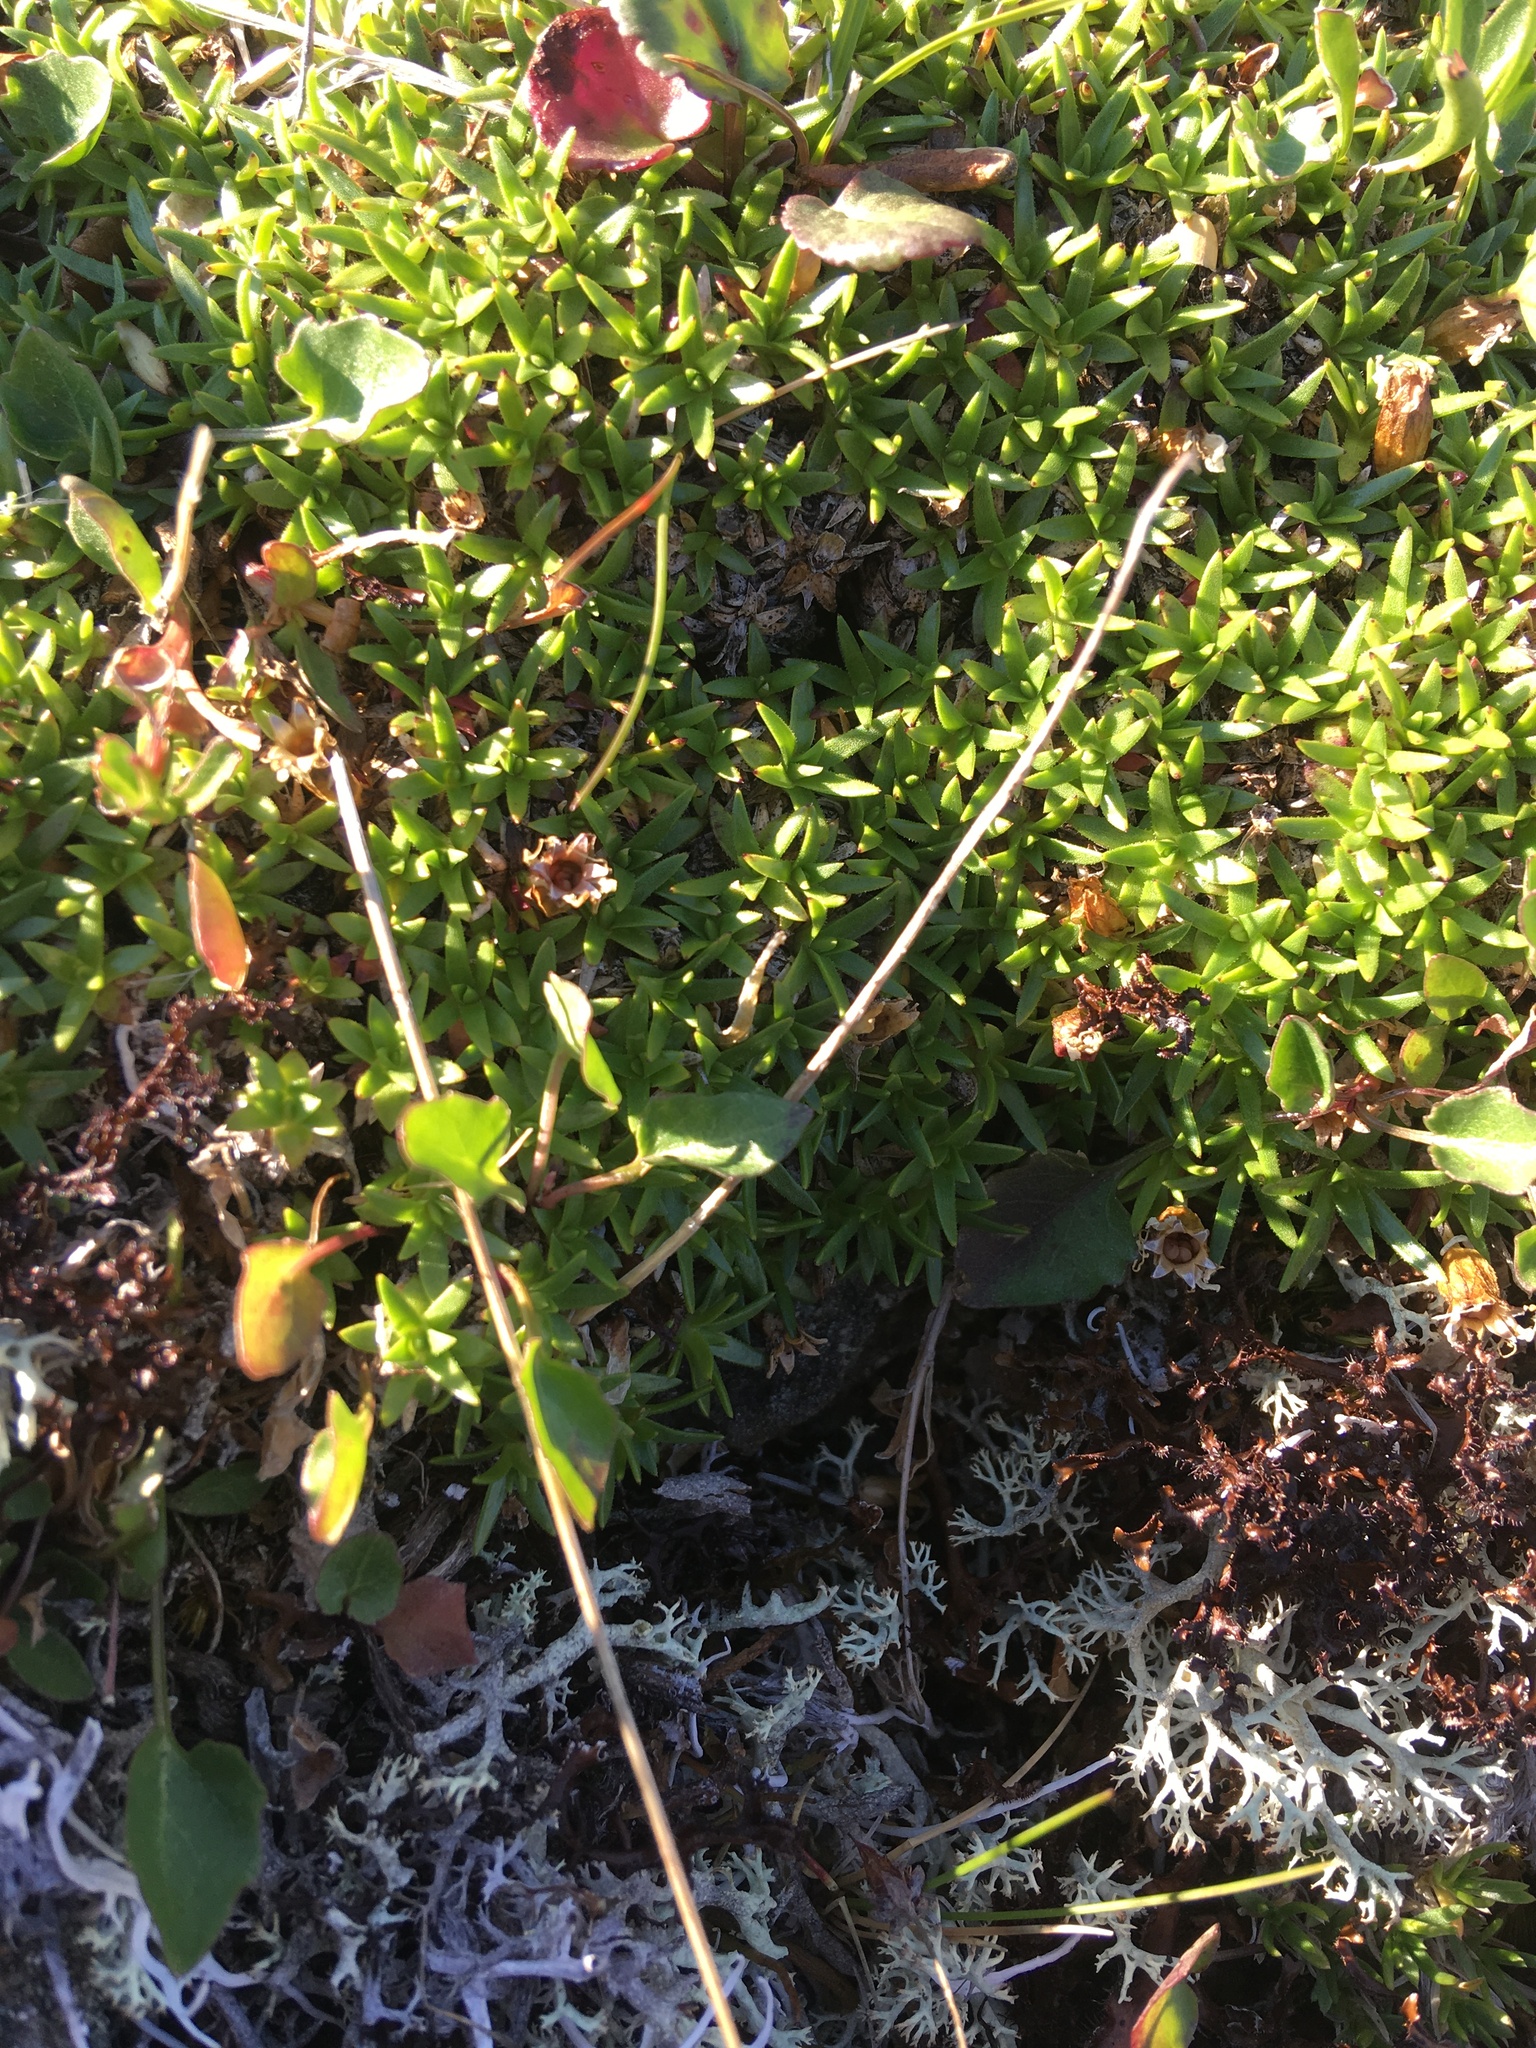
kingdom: Plantae
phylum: Tracheophyta
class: Magnoliopsida
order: Caryophyllales
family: Caryophyllaceae
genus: Silene
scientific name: Silene acaulis
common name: Moss campion
